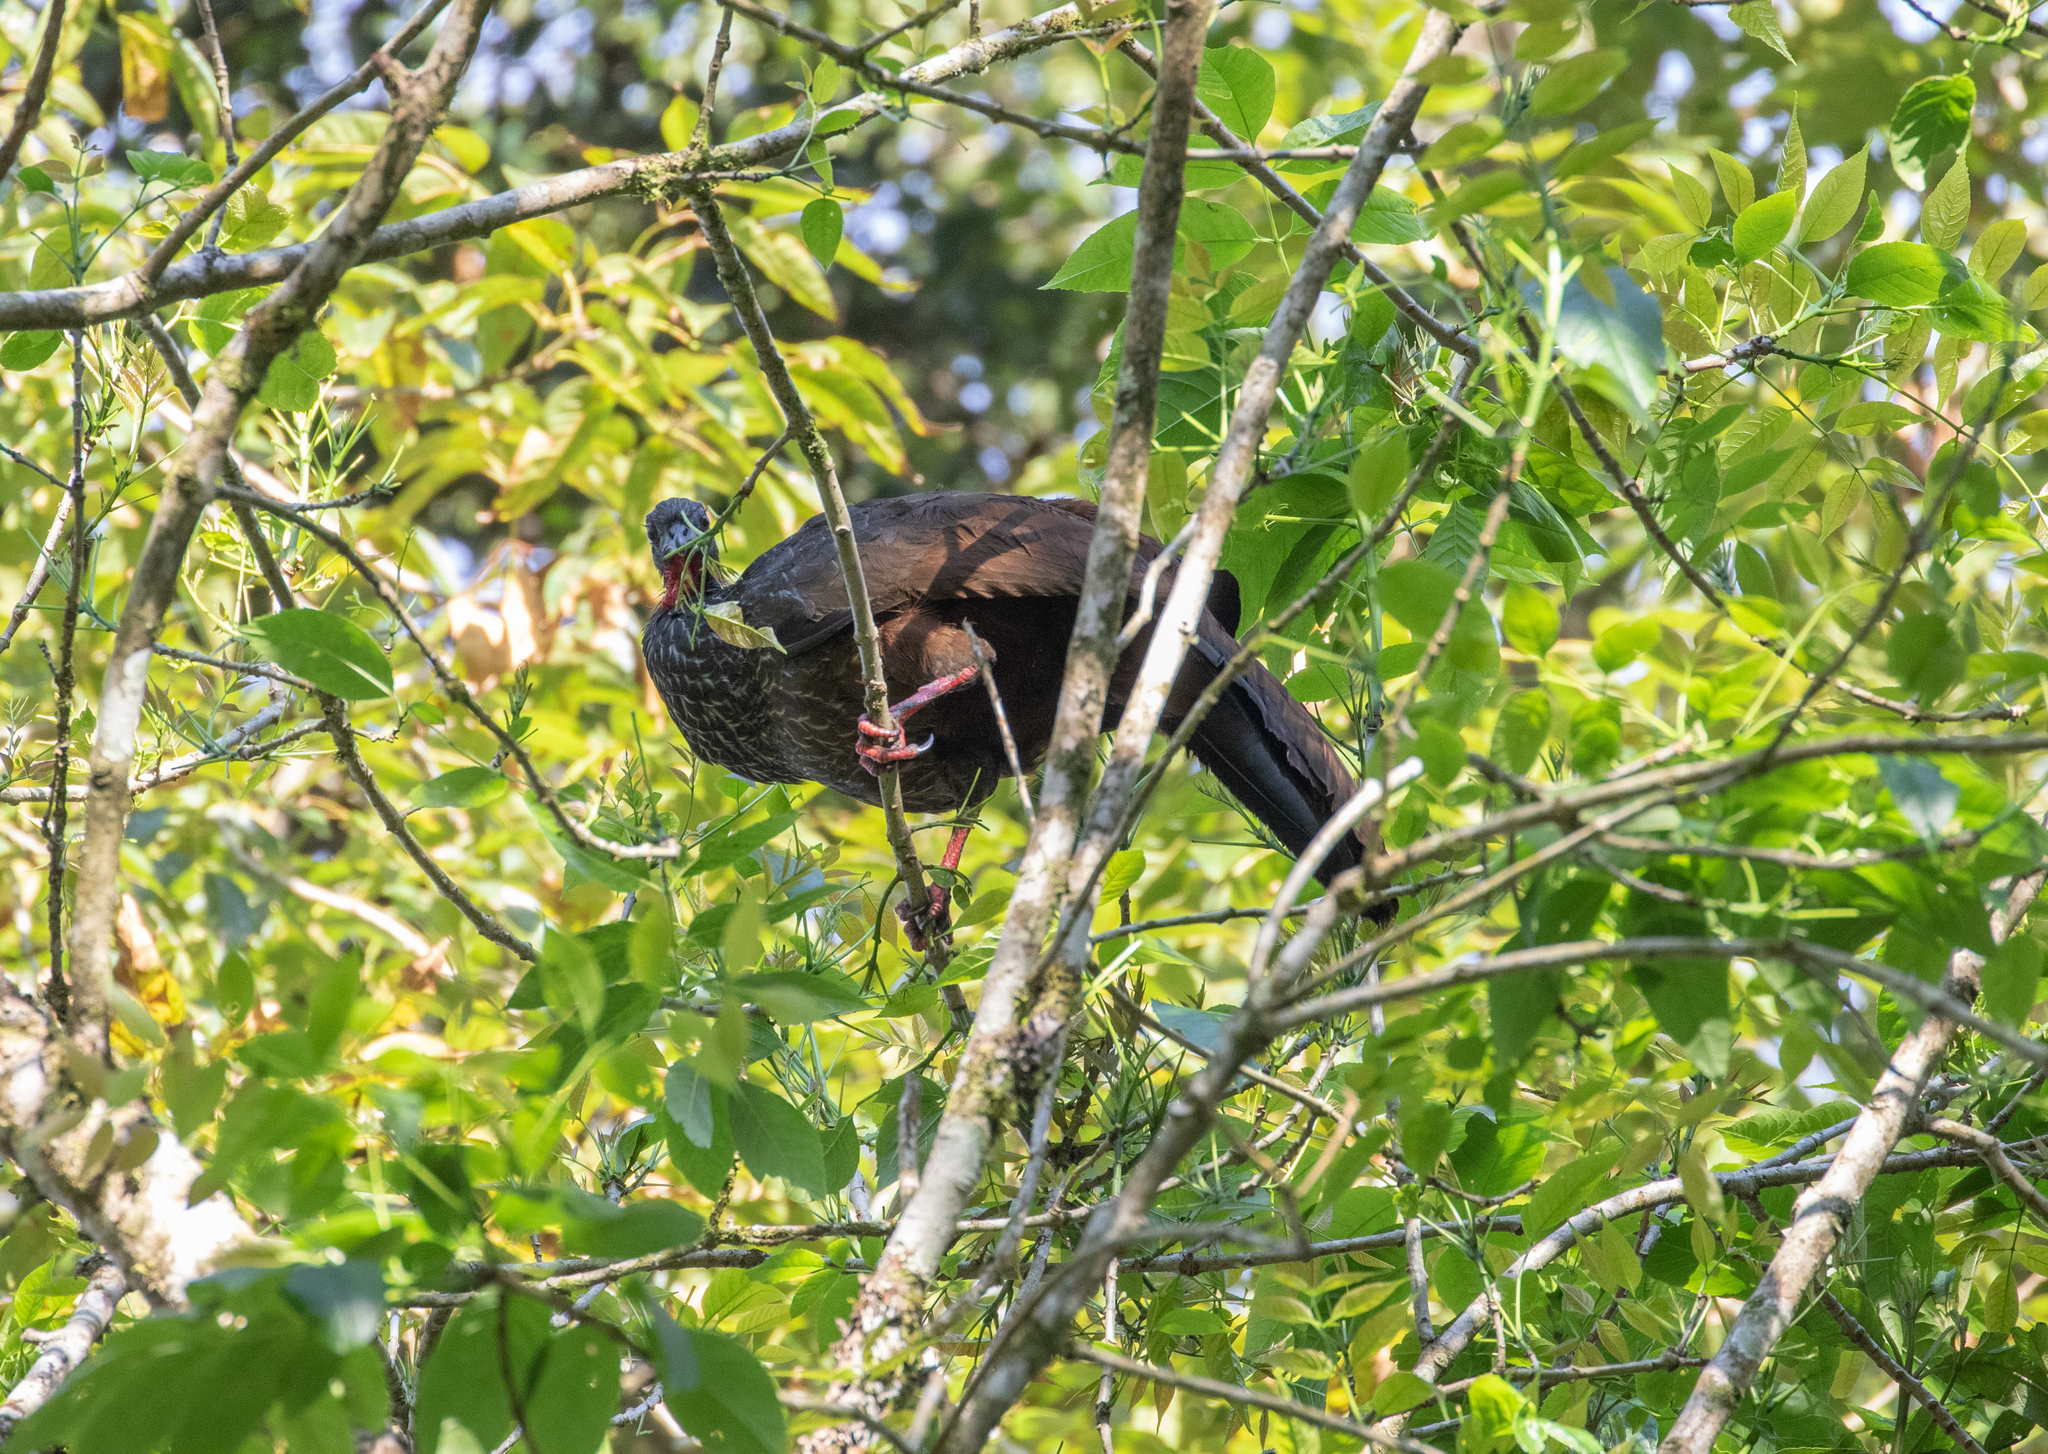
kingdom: Animalia
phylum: Chordata
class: Aves
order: Galliformes
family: Cracidae
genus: Penelope
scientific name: Penelope perspicax
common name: Cauca guan
